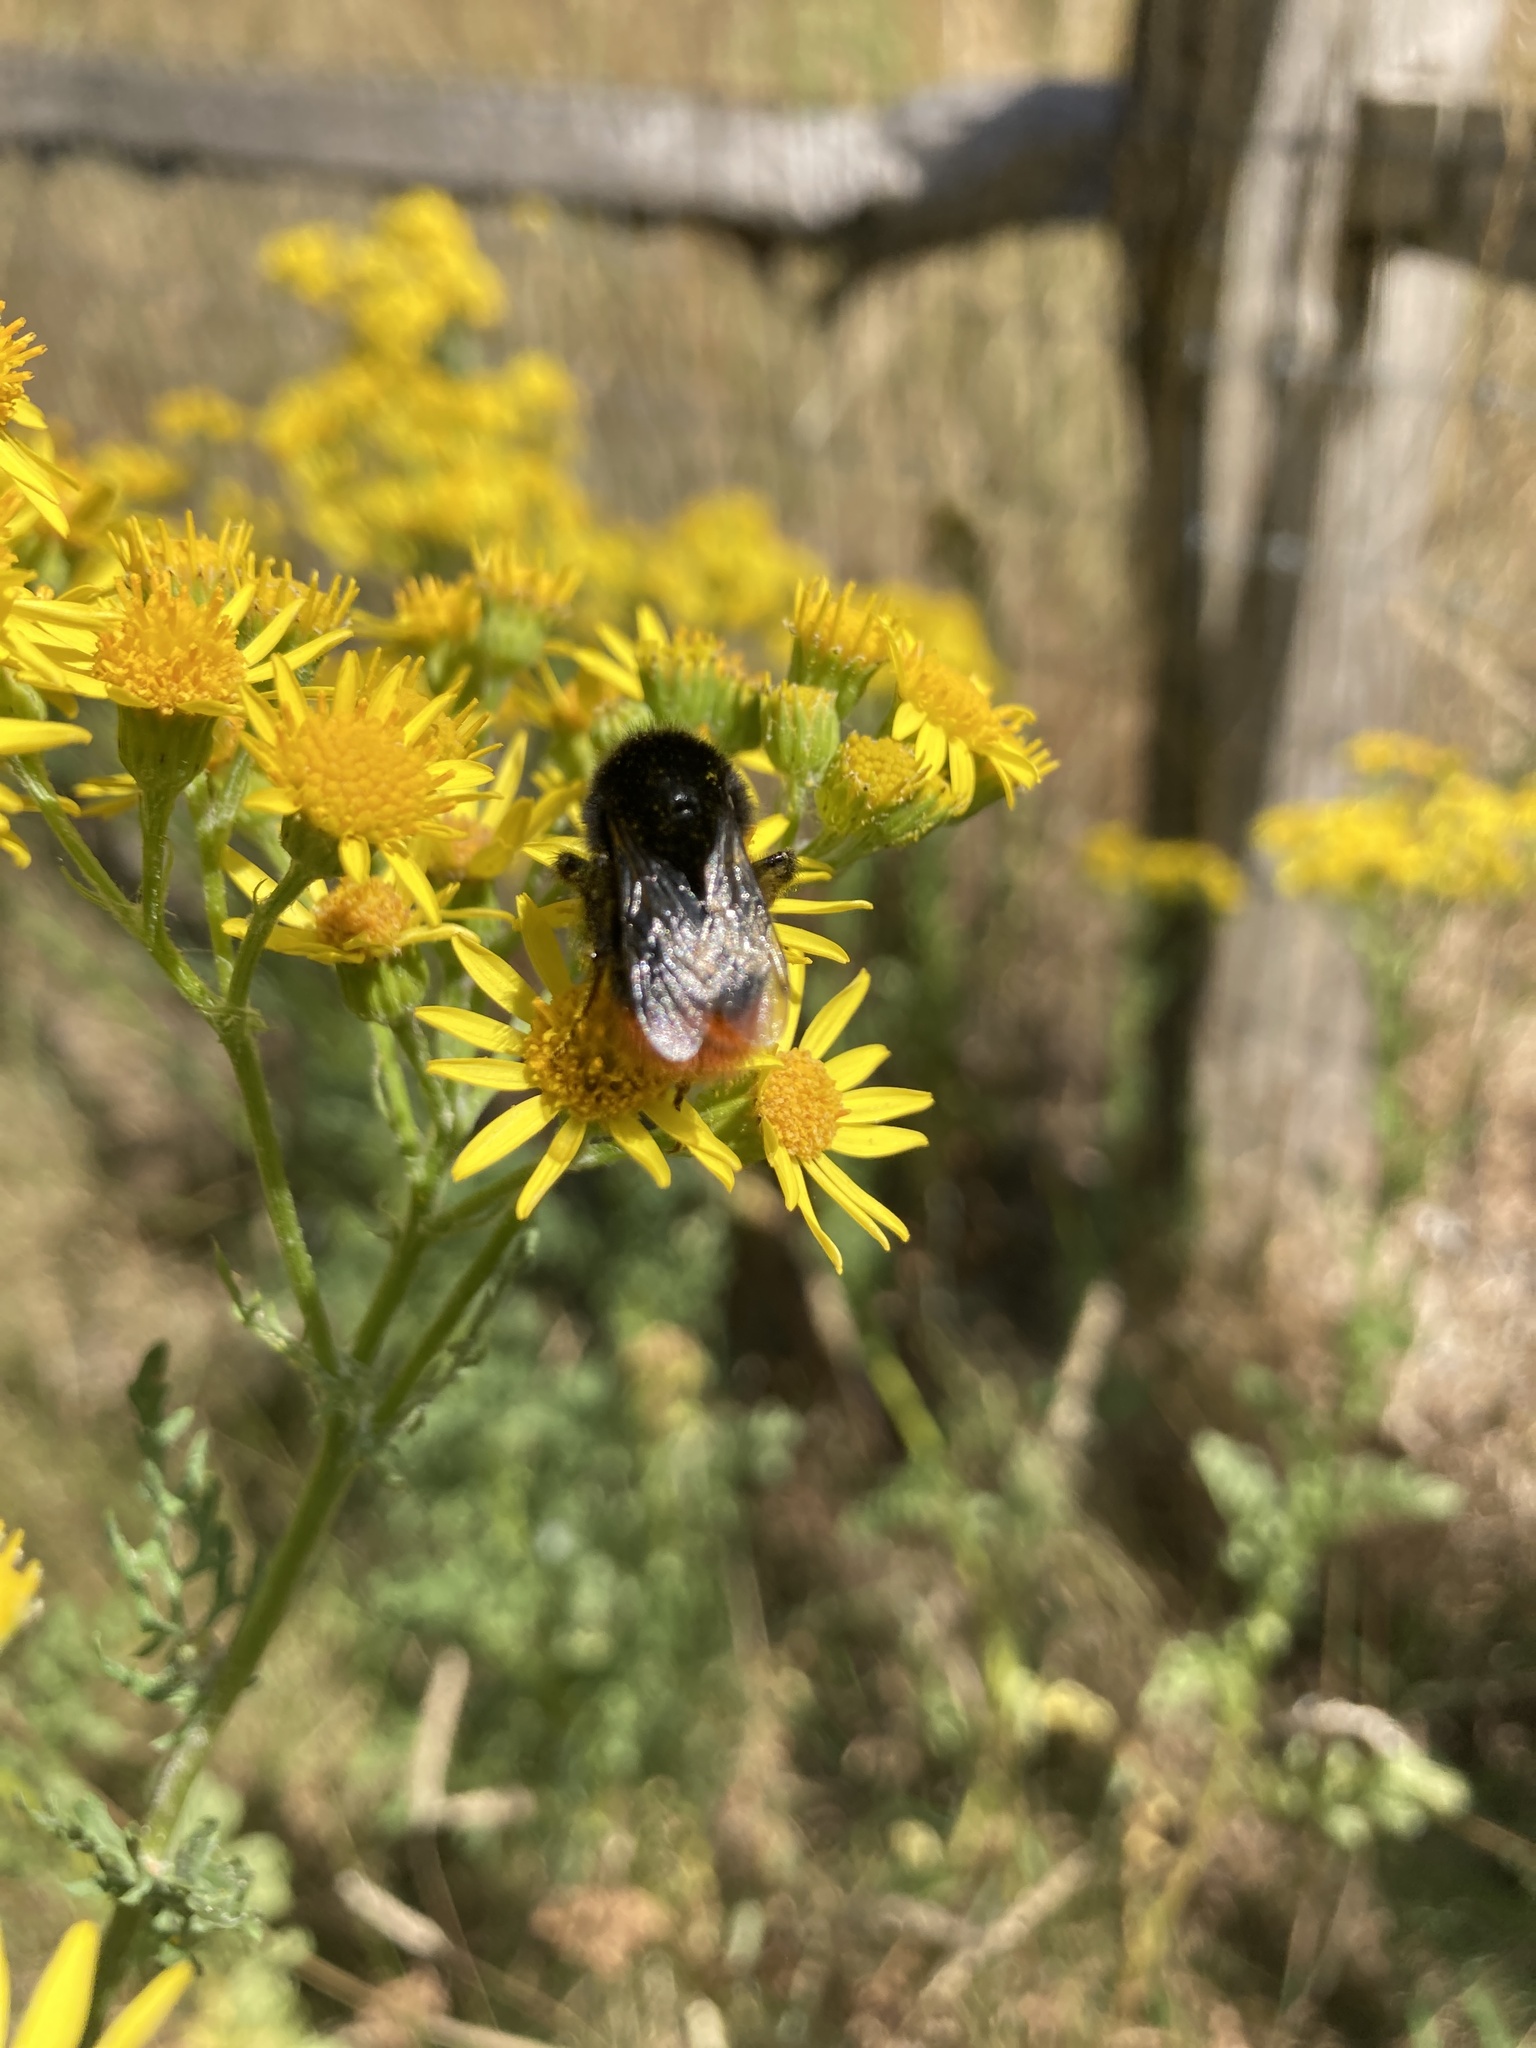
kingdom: Animalia
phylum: Arthropoda
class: Insecta
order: Hymenoptera
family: Apidae
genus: Bombus
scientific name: Bombus lapidarius
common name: Large red-tailed humble-bee
